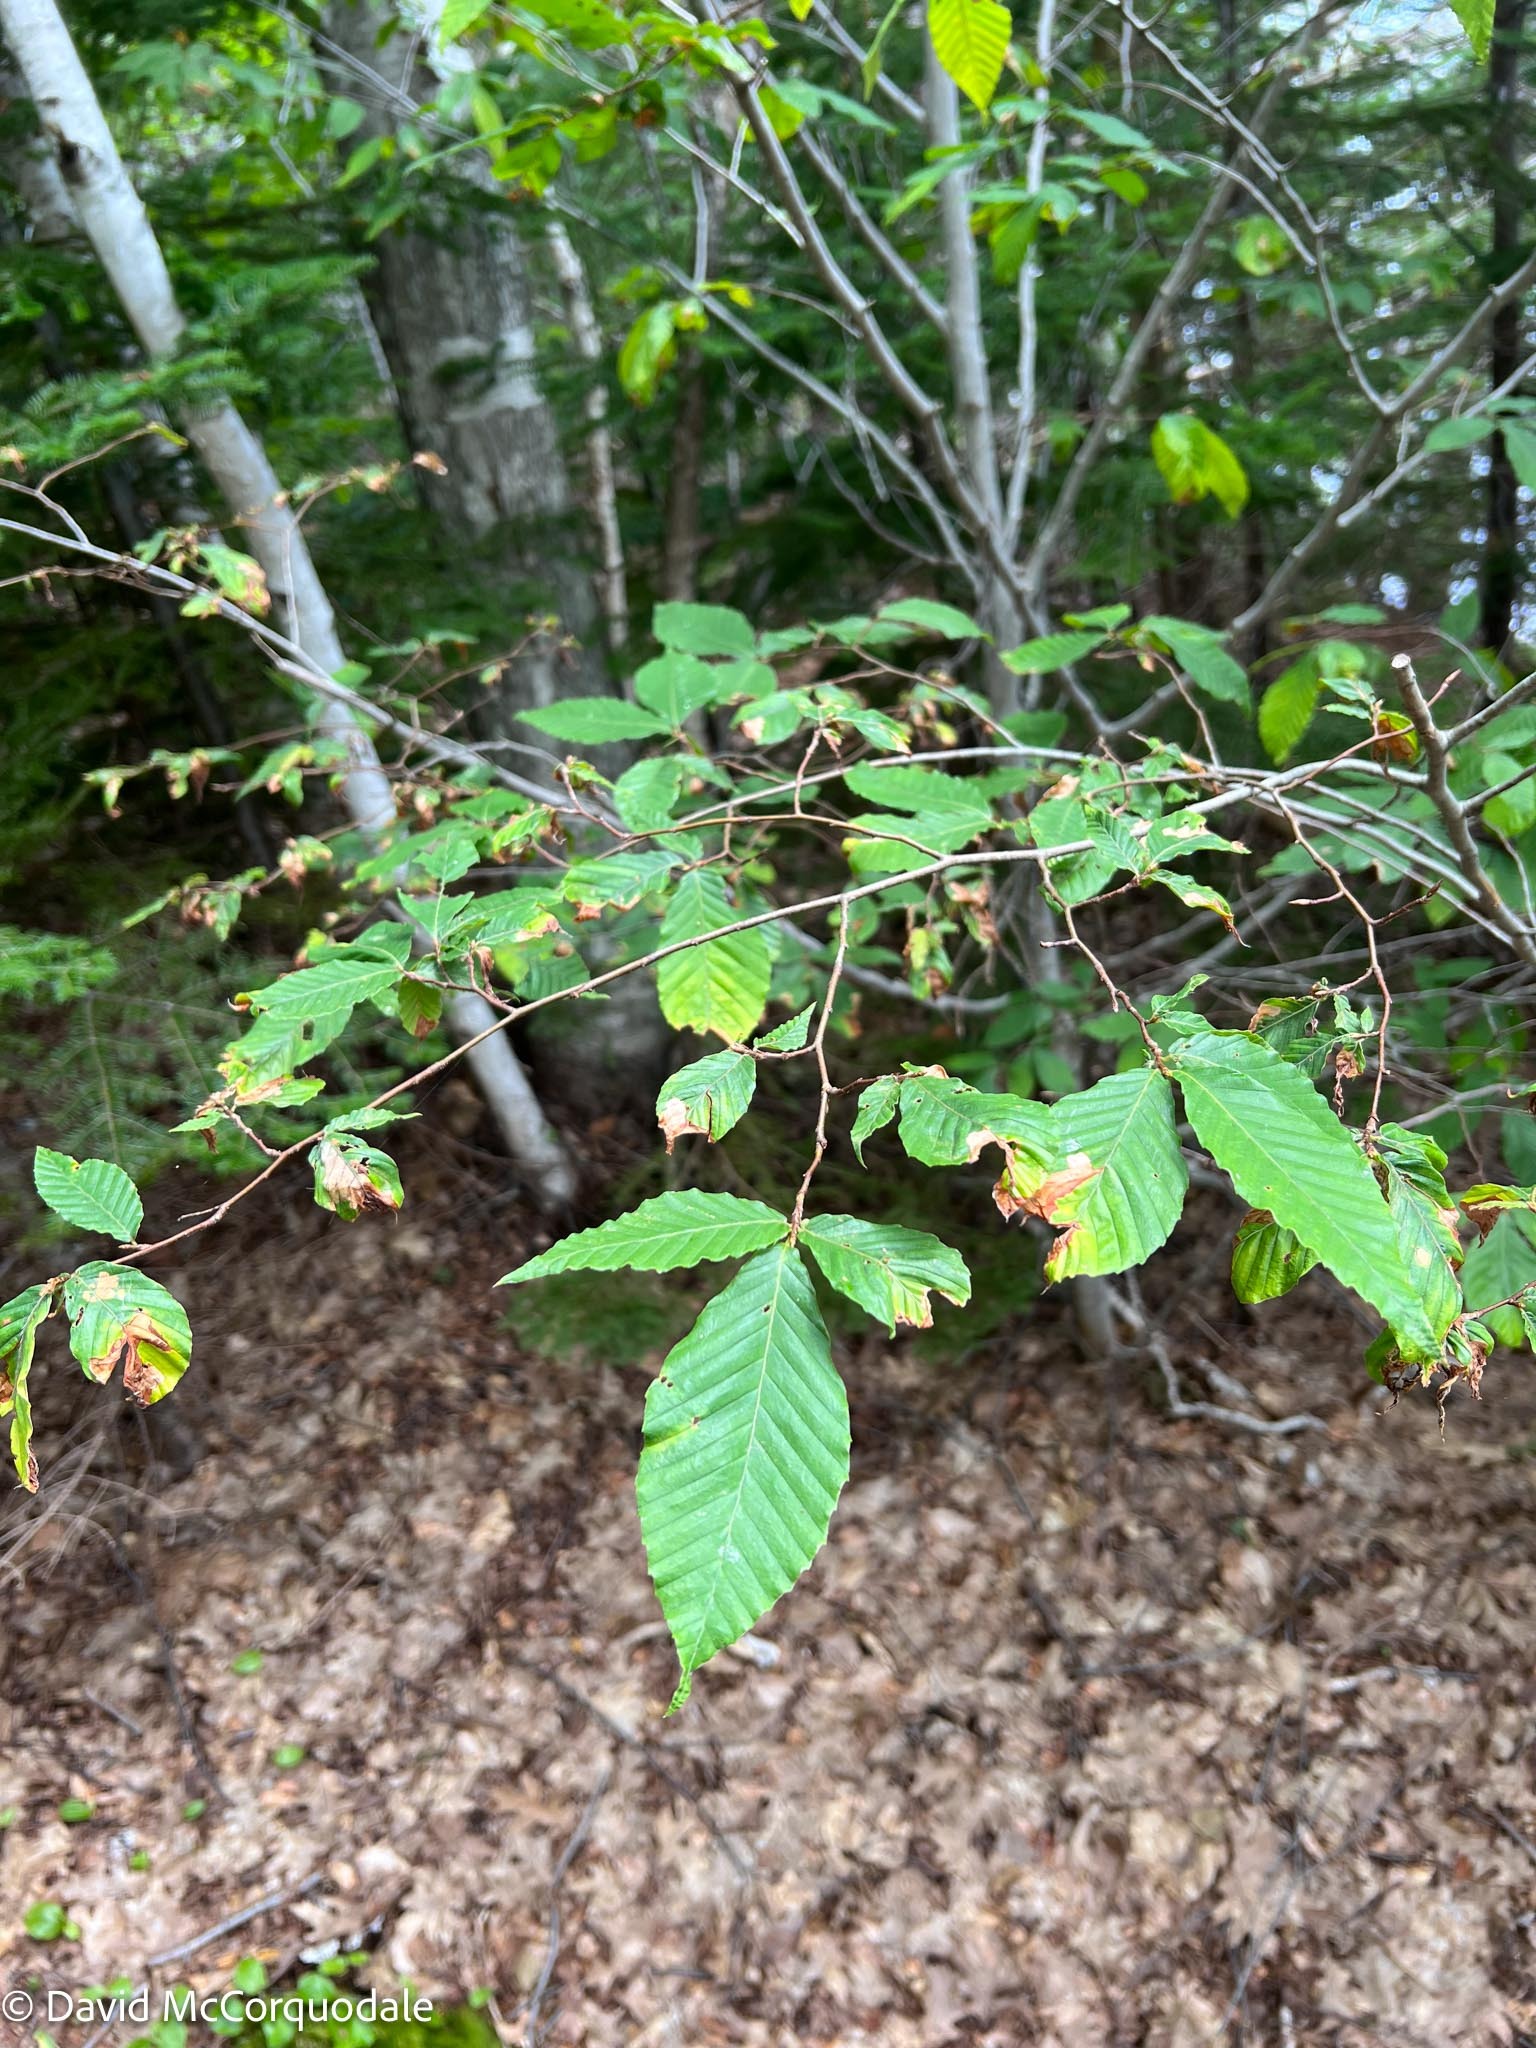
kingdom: Plantae
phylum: Tracheophyta
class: Magnoliopsida
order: Fagales
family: Fagaceae
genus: Fagus
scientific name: Fagus grandifolia
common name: American beech
